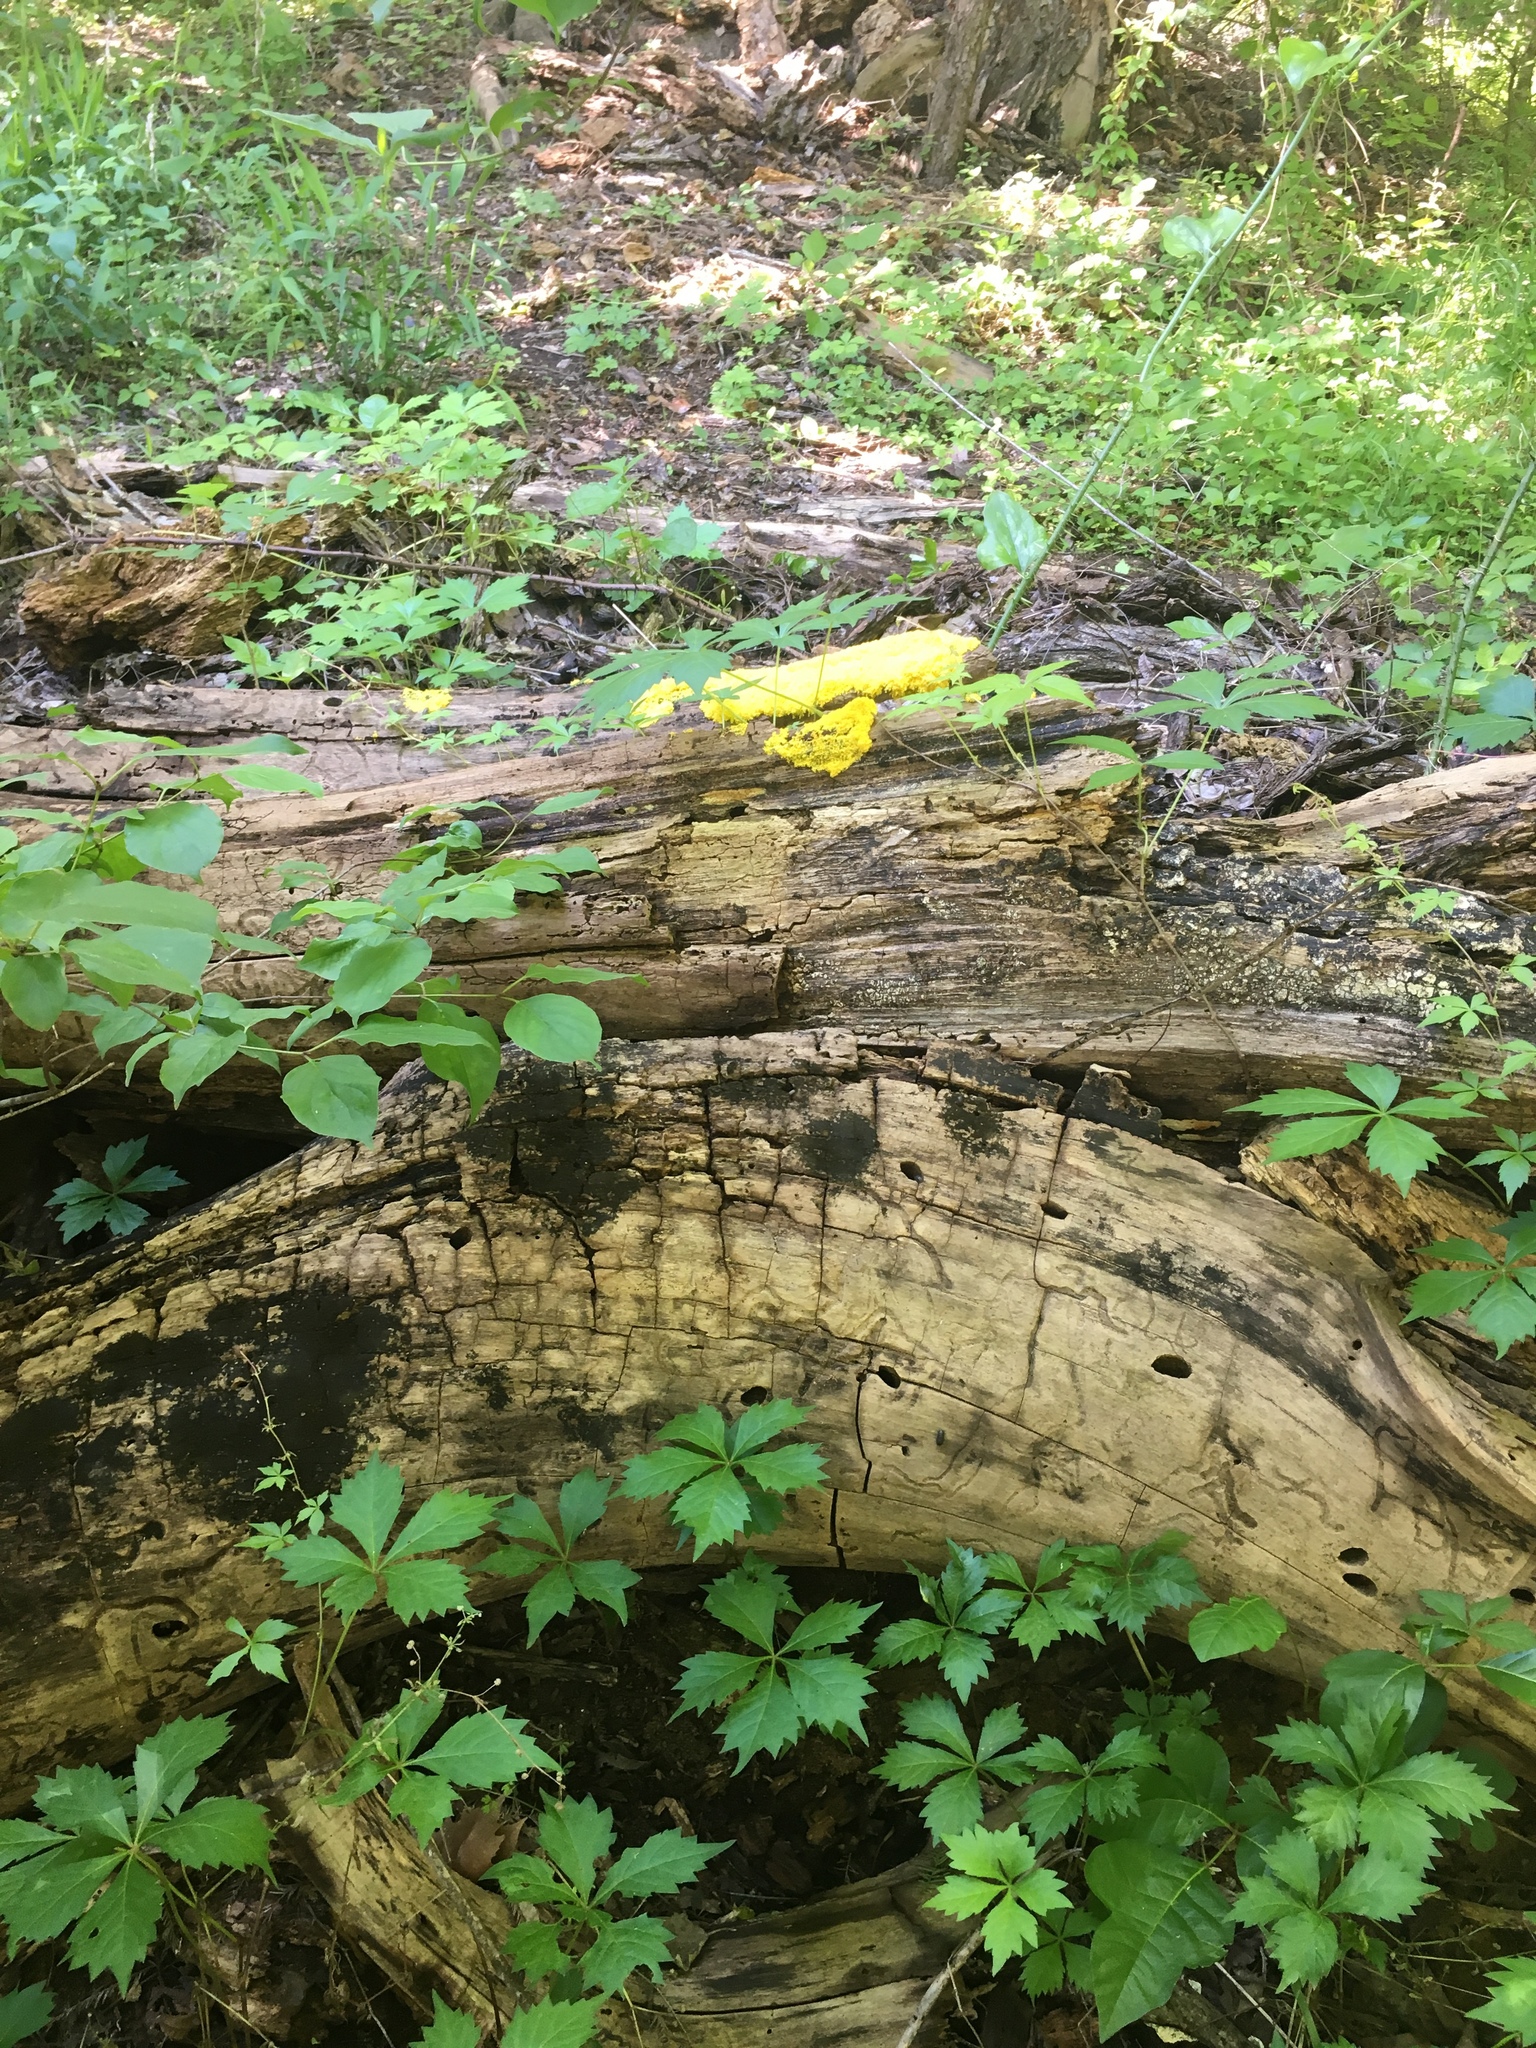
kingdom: Protozoa
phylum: Mycetozoa
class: Myxomycetes
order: Physarales
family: Physaraceae
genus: Fuligo
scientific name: Fuligo septica
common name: Dog vomit slime mold
